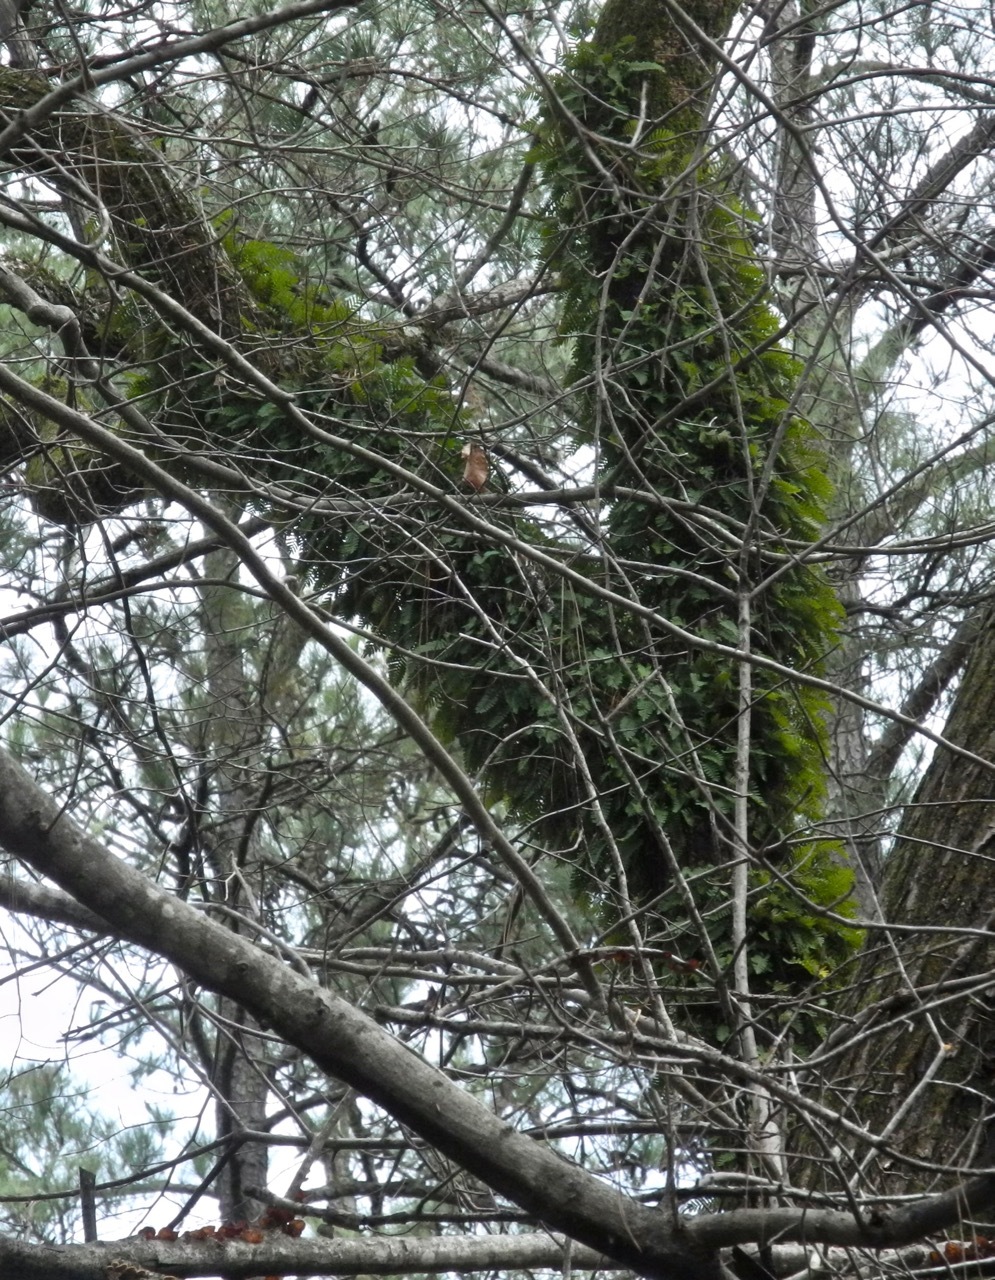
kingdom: Plantae
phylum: Tracheophyta
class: Polypodiopsida
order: Polypodiales
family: Polypodiaceae
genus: Pleopeltis
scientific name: Pleopeltis michauxiana
